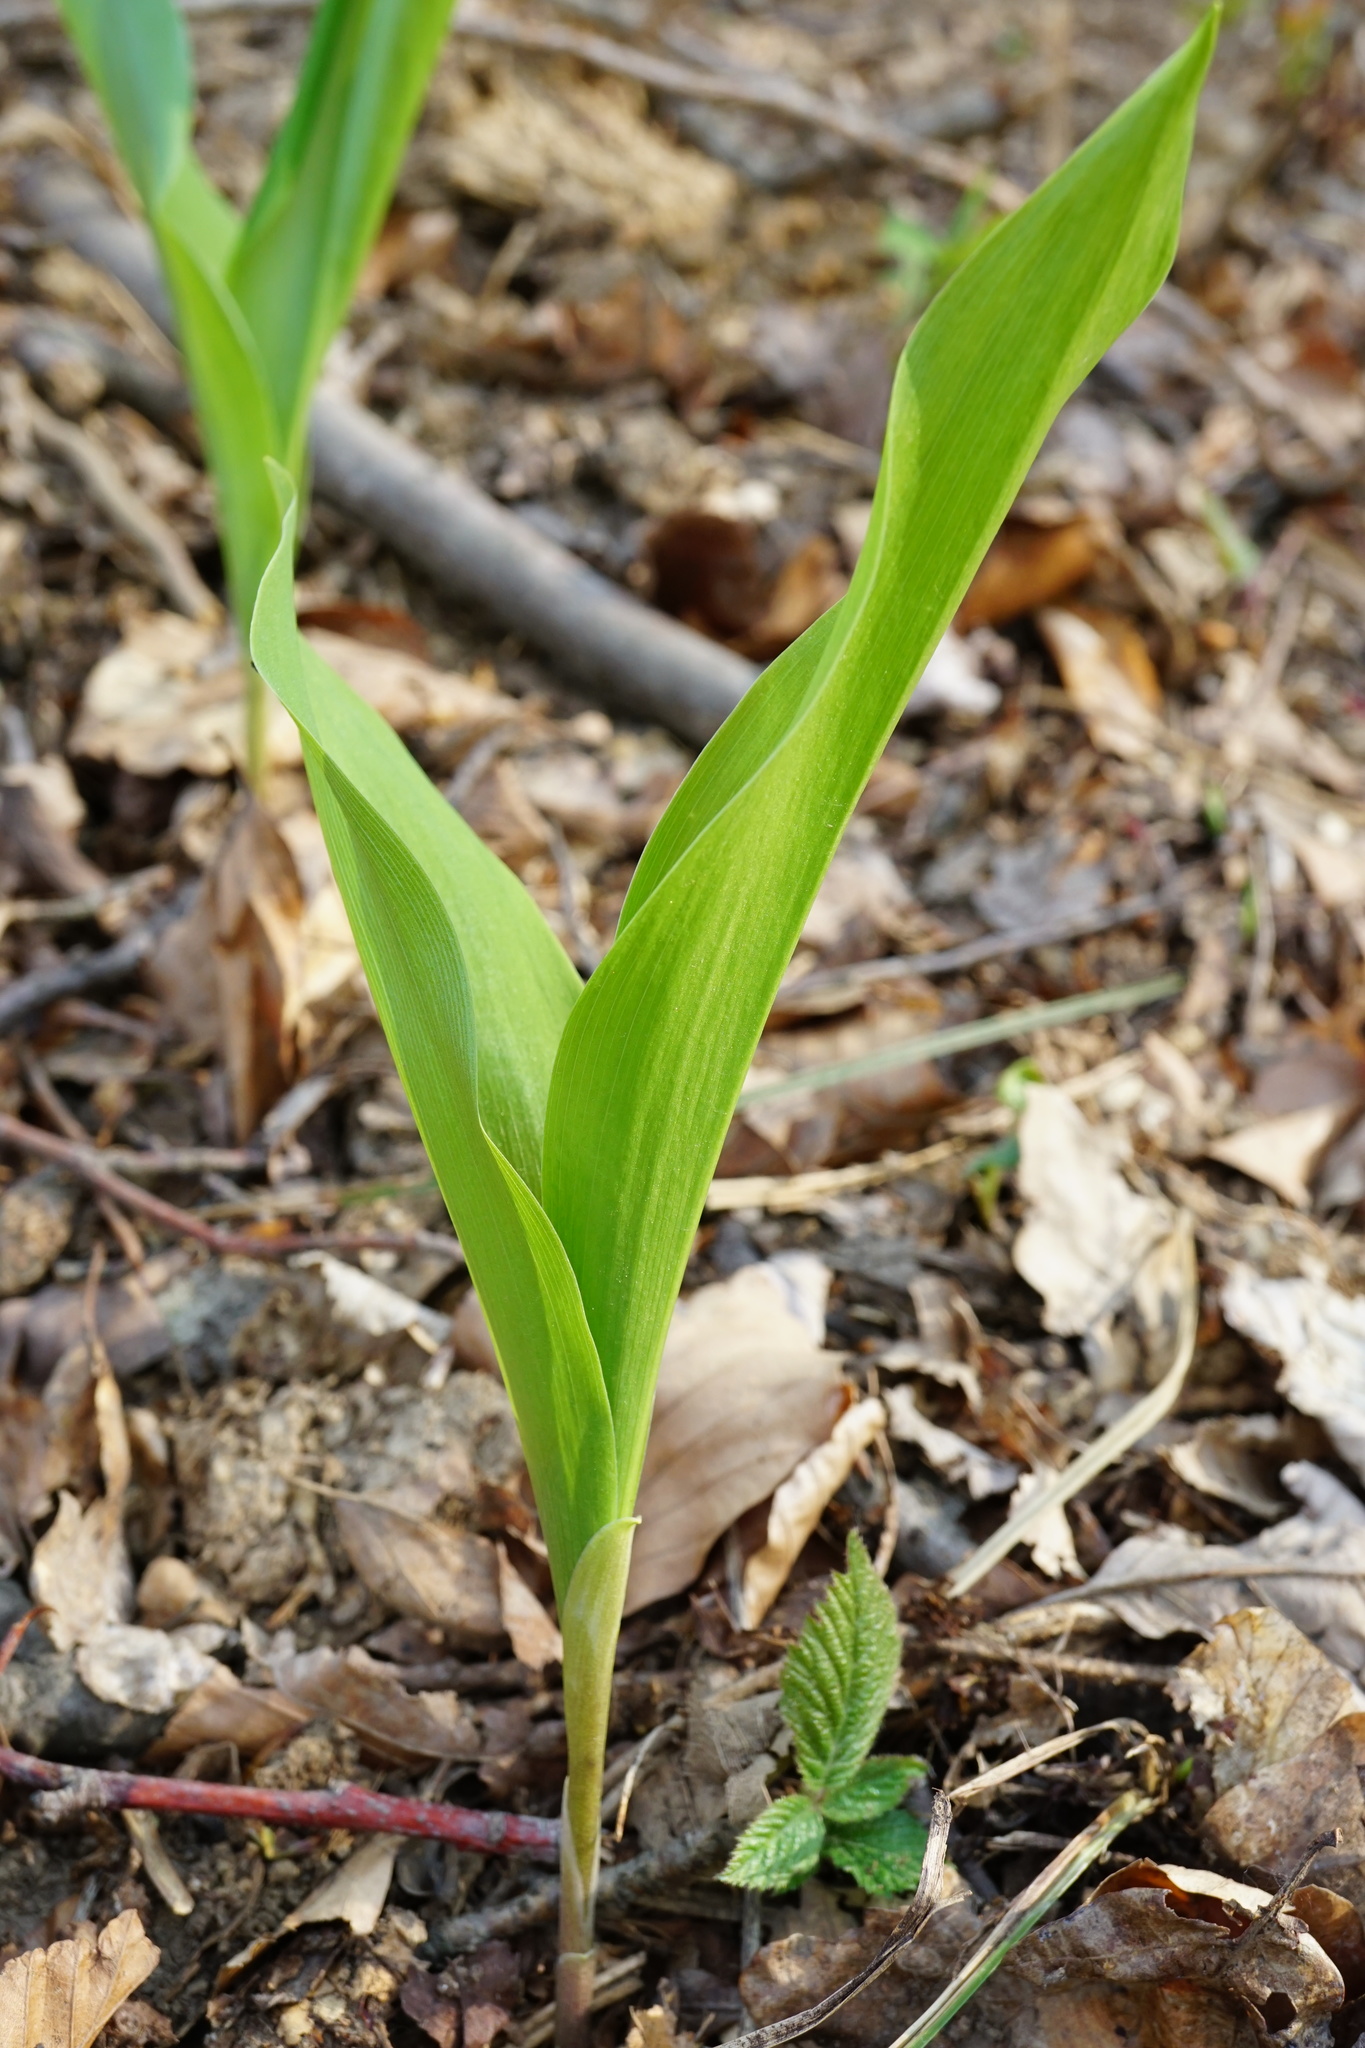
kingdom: Plantae
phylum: Tracheophyta
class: Liliopsida
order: Asparagales
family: Asparagaceae
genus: Convallaria
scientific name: Convallaria majalis
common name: Lily-of-the-valley
